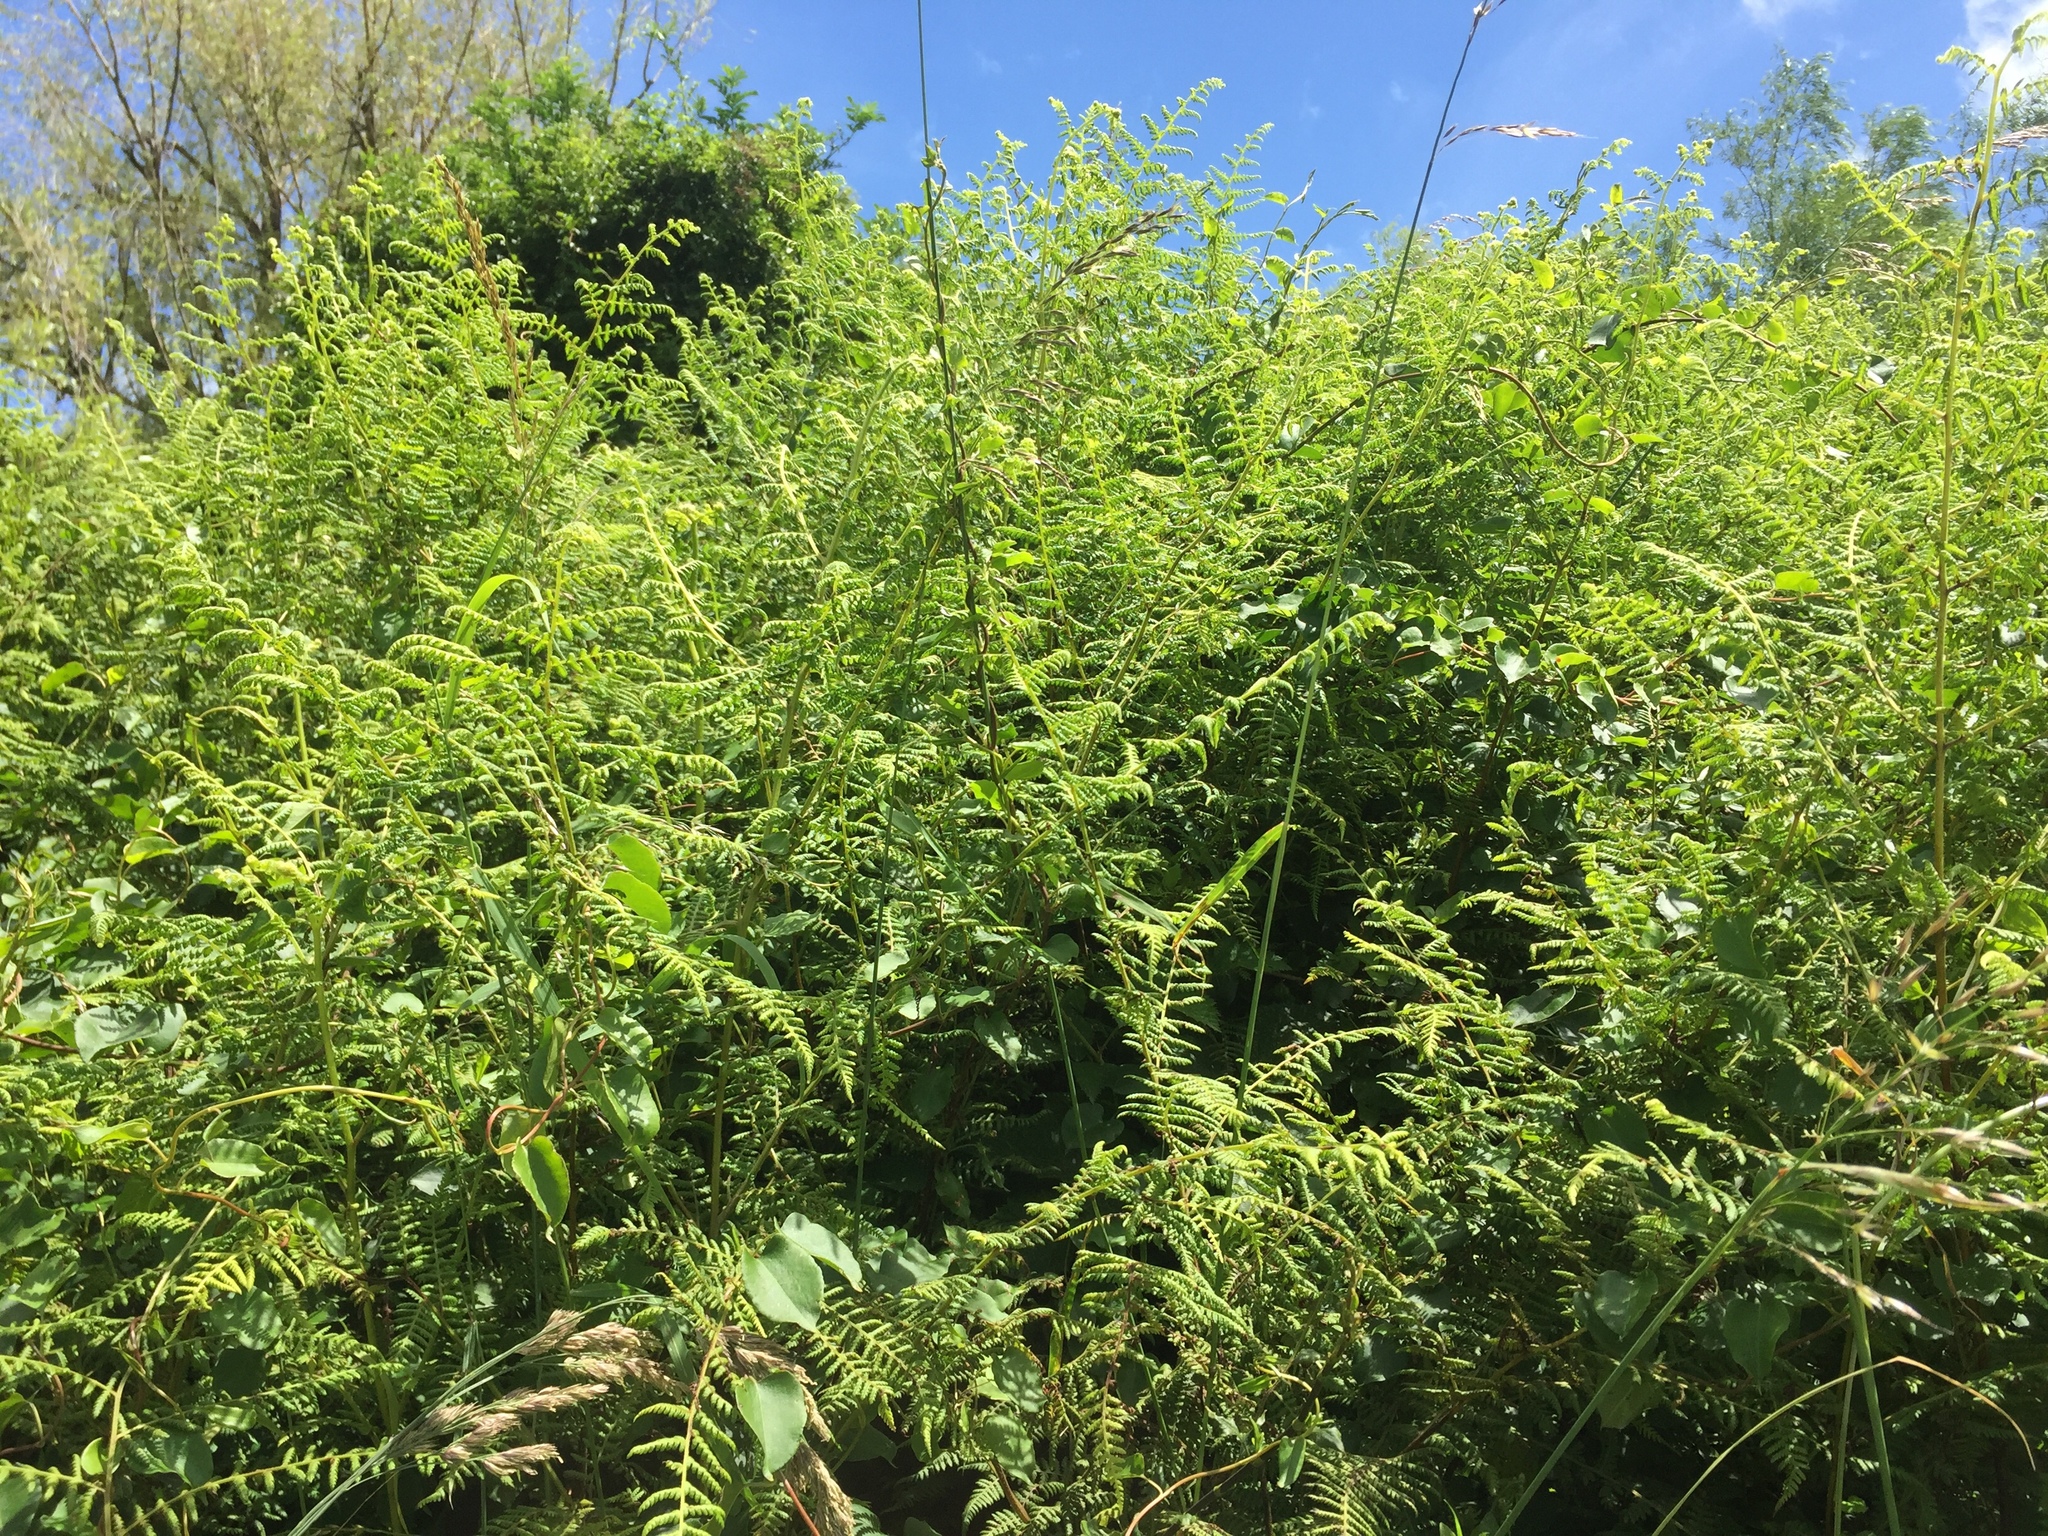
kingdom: Plantae
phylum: Tracheophyta
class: Polypodiopsida
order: Polypodiales
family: Dennstaedtiaceae
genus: Pteridium
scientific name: Pteridium esculentum
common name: Bracken fern
